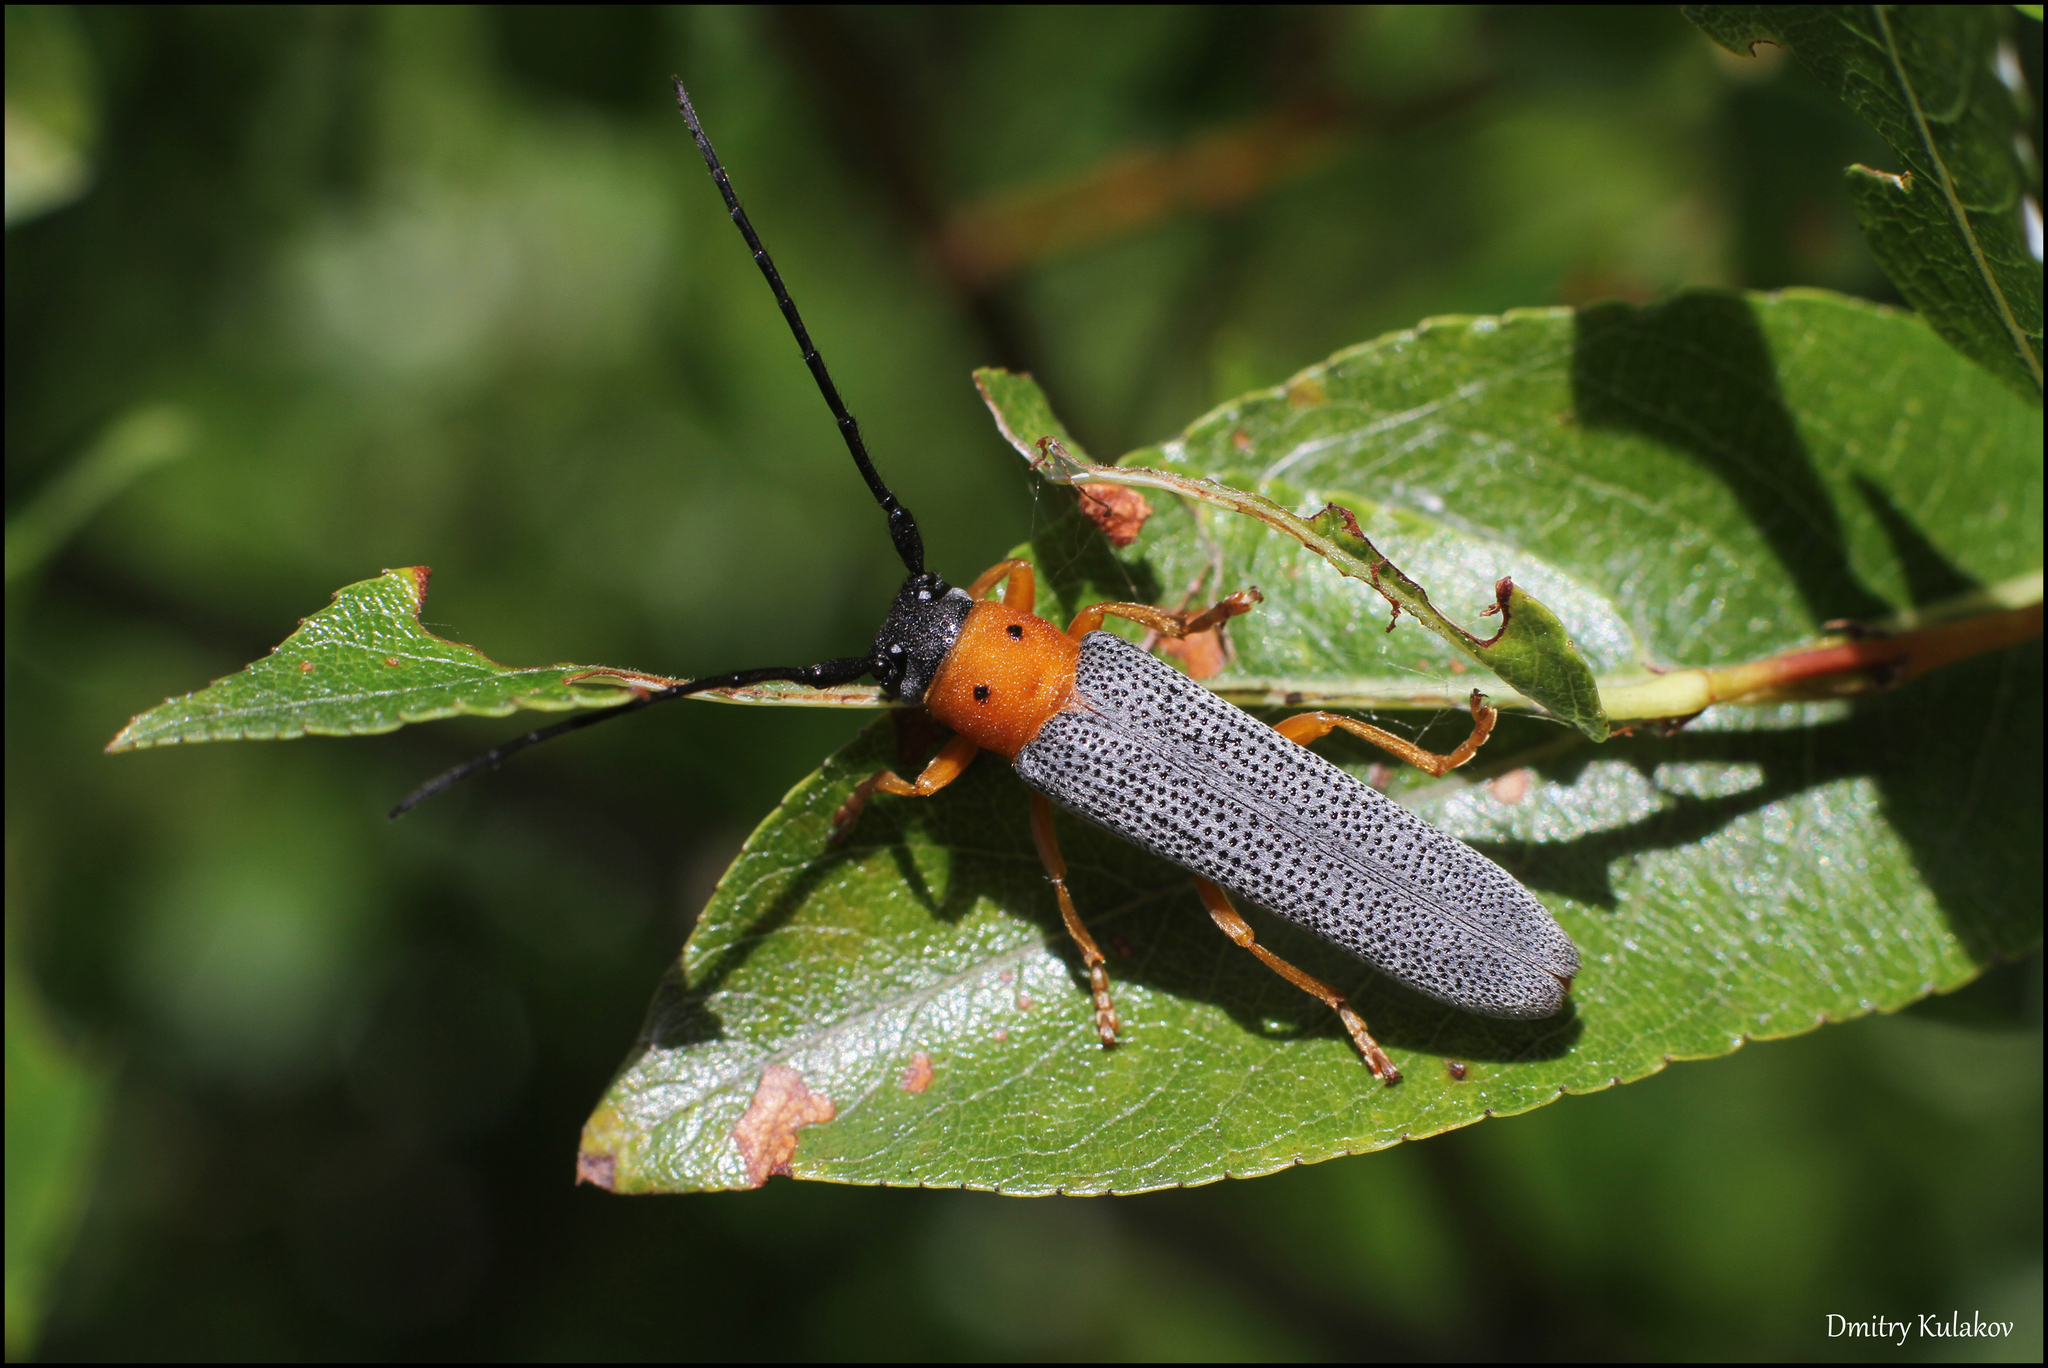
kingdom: Animalia
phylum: Arthropoda
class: Insecta
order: Coleoptera
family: Cerambycidae
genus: Oberea
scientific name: Oberea oculata
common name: Eyed longhorn beetle
